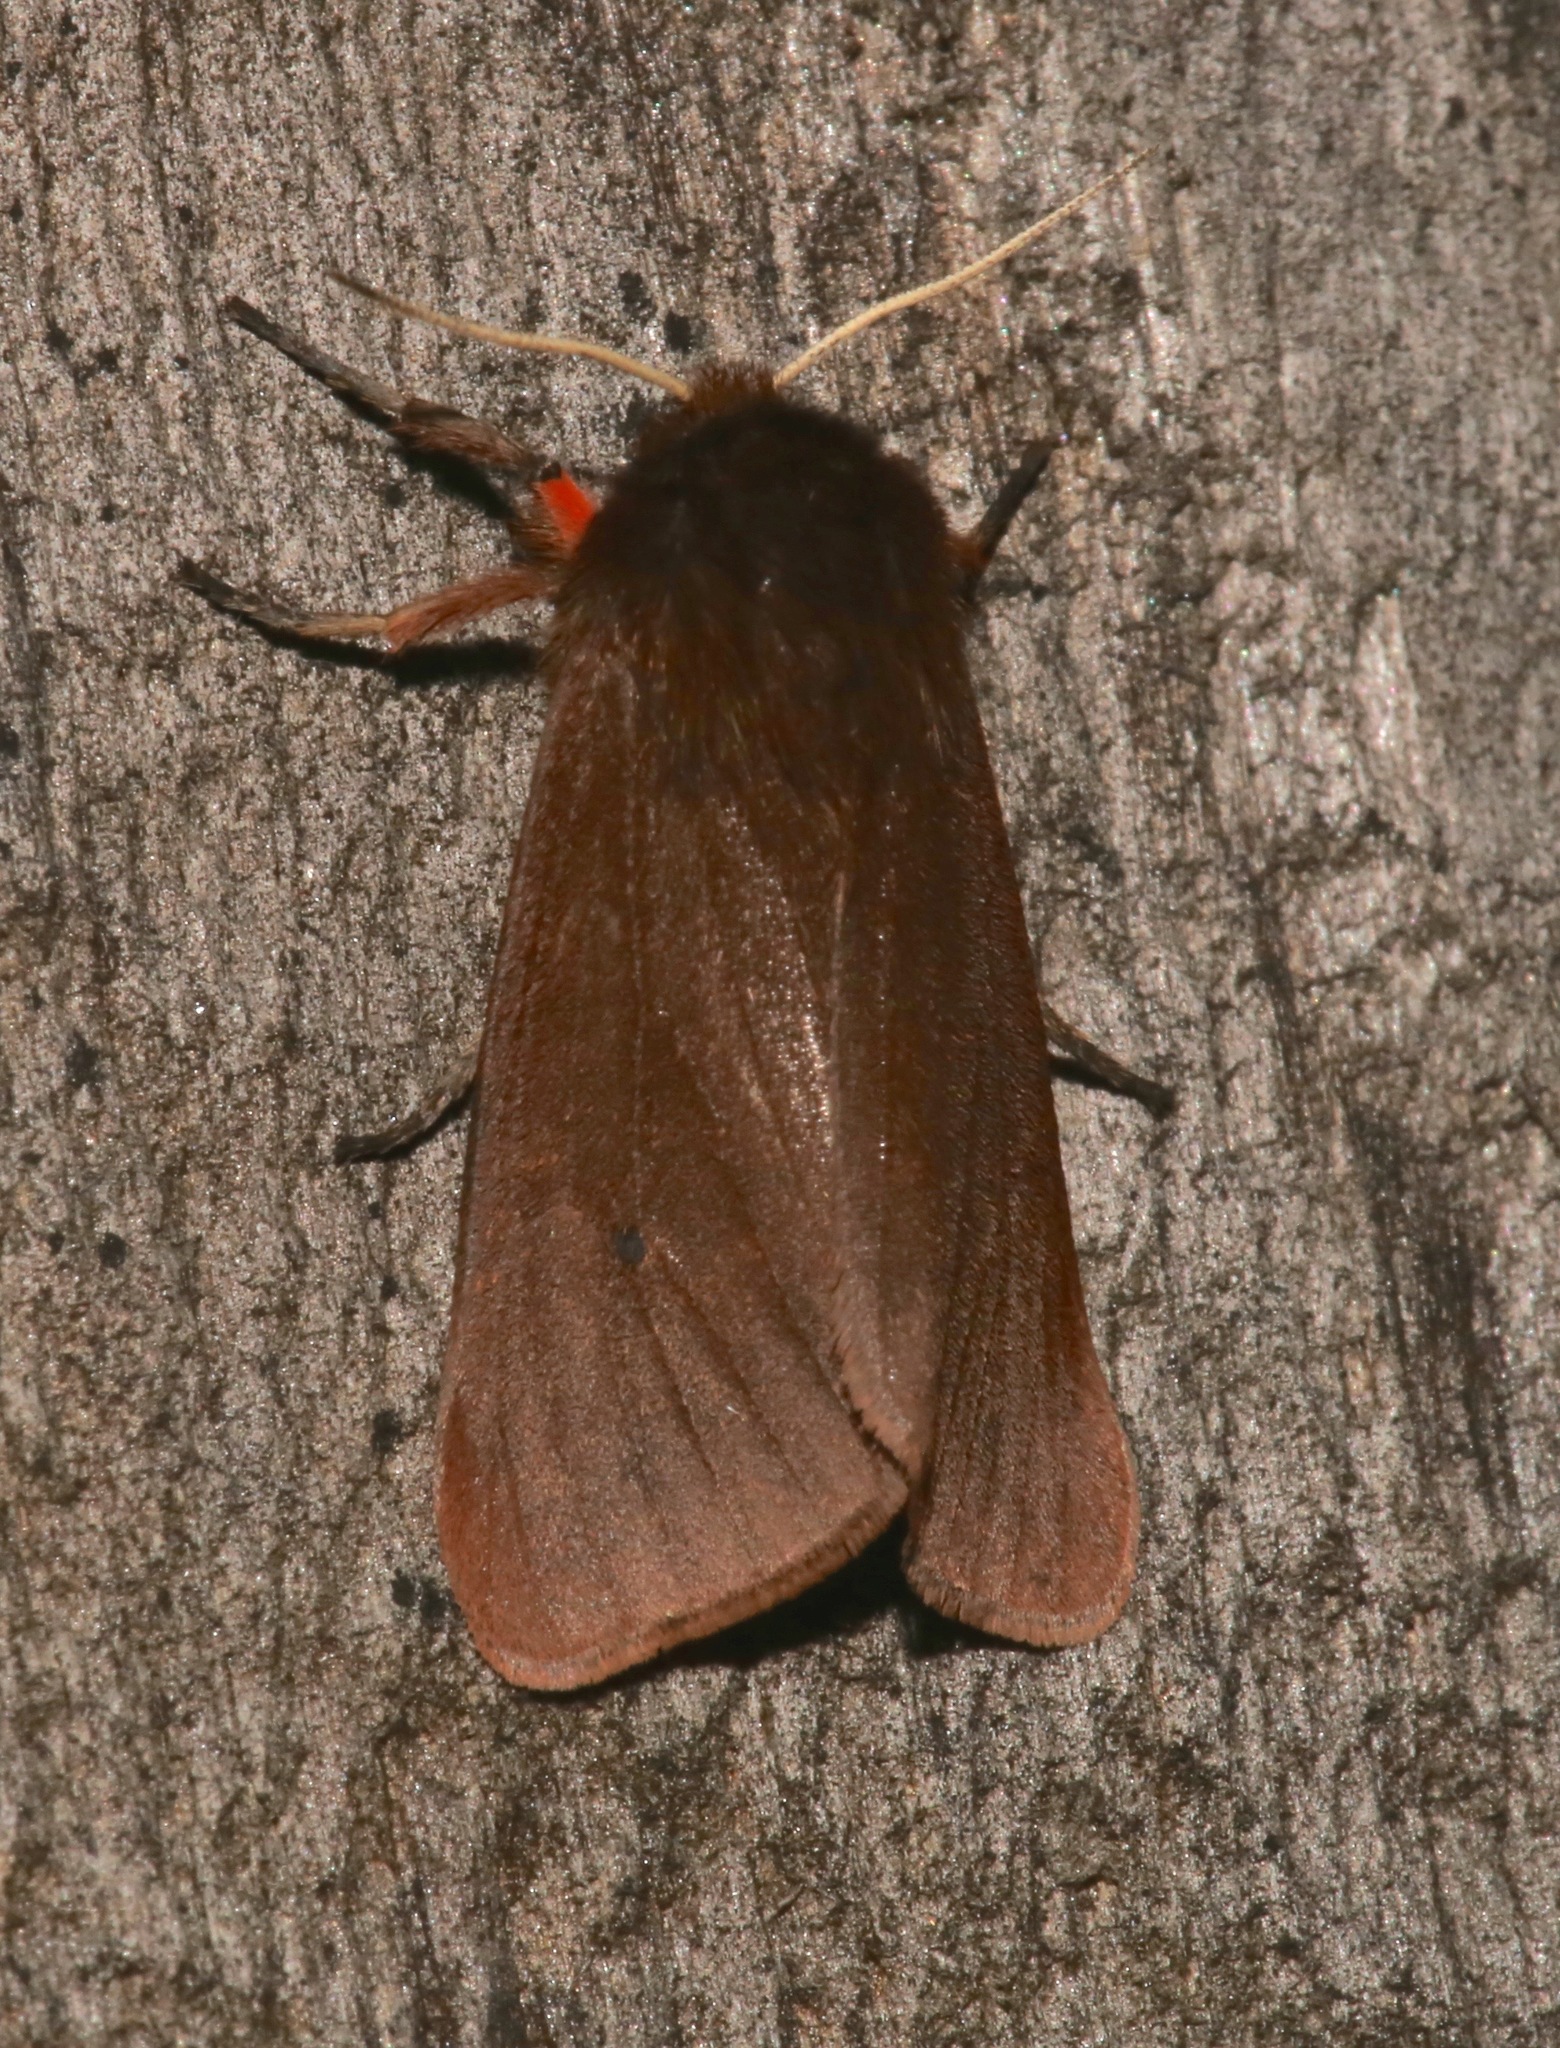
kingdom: Animalia
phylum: Arthropoda
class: Insecta
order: Lepidoptera
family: Erebidae
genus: Phragmatobia
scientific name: Phragmatobia fuliginosa
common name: Ruby tiger
